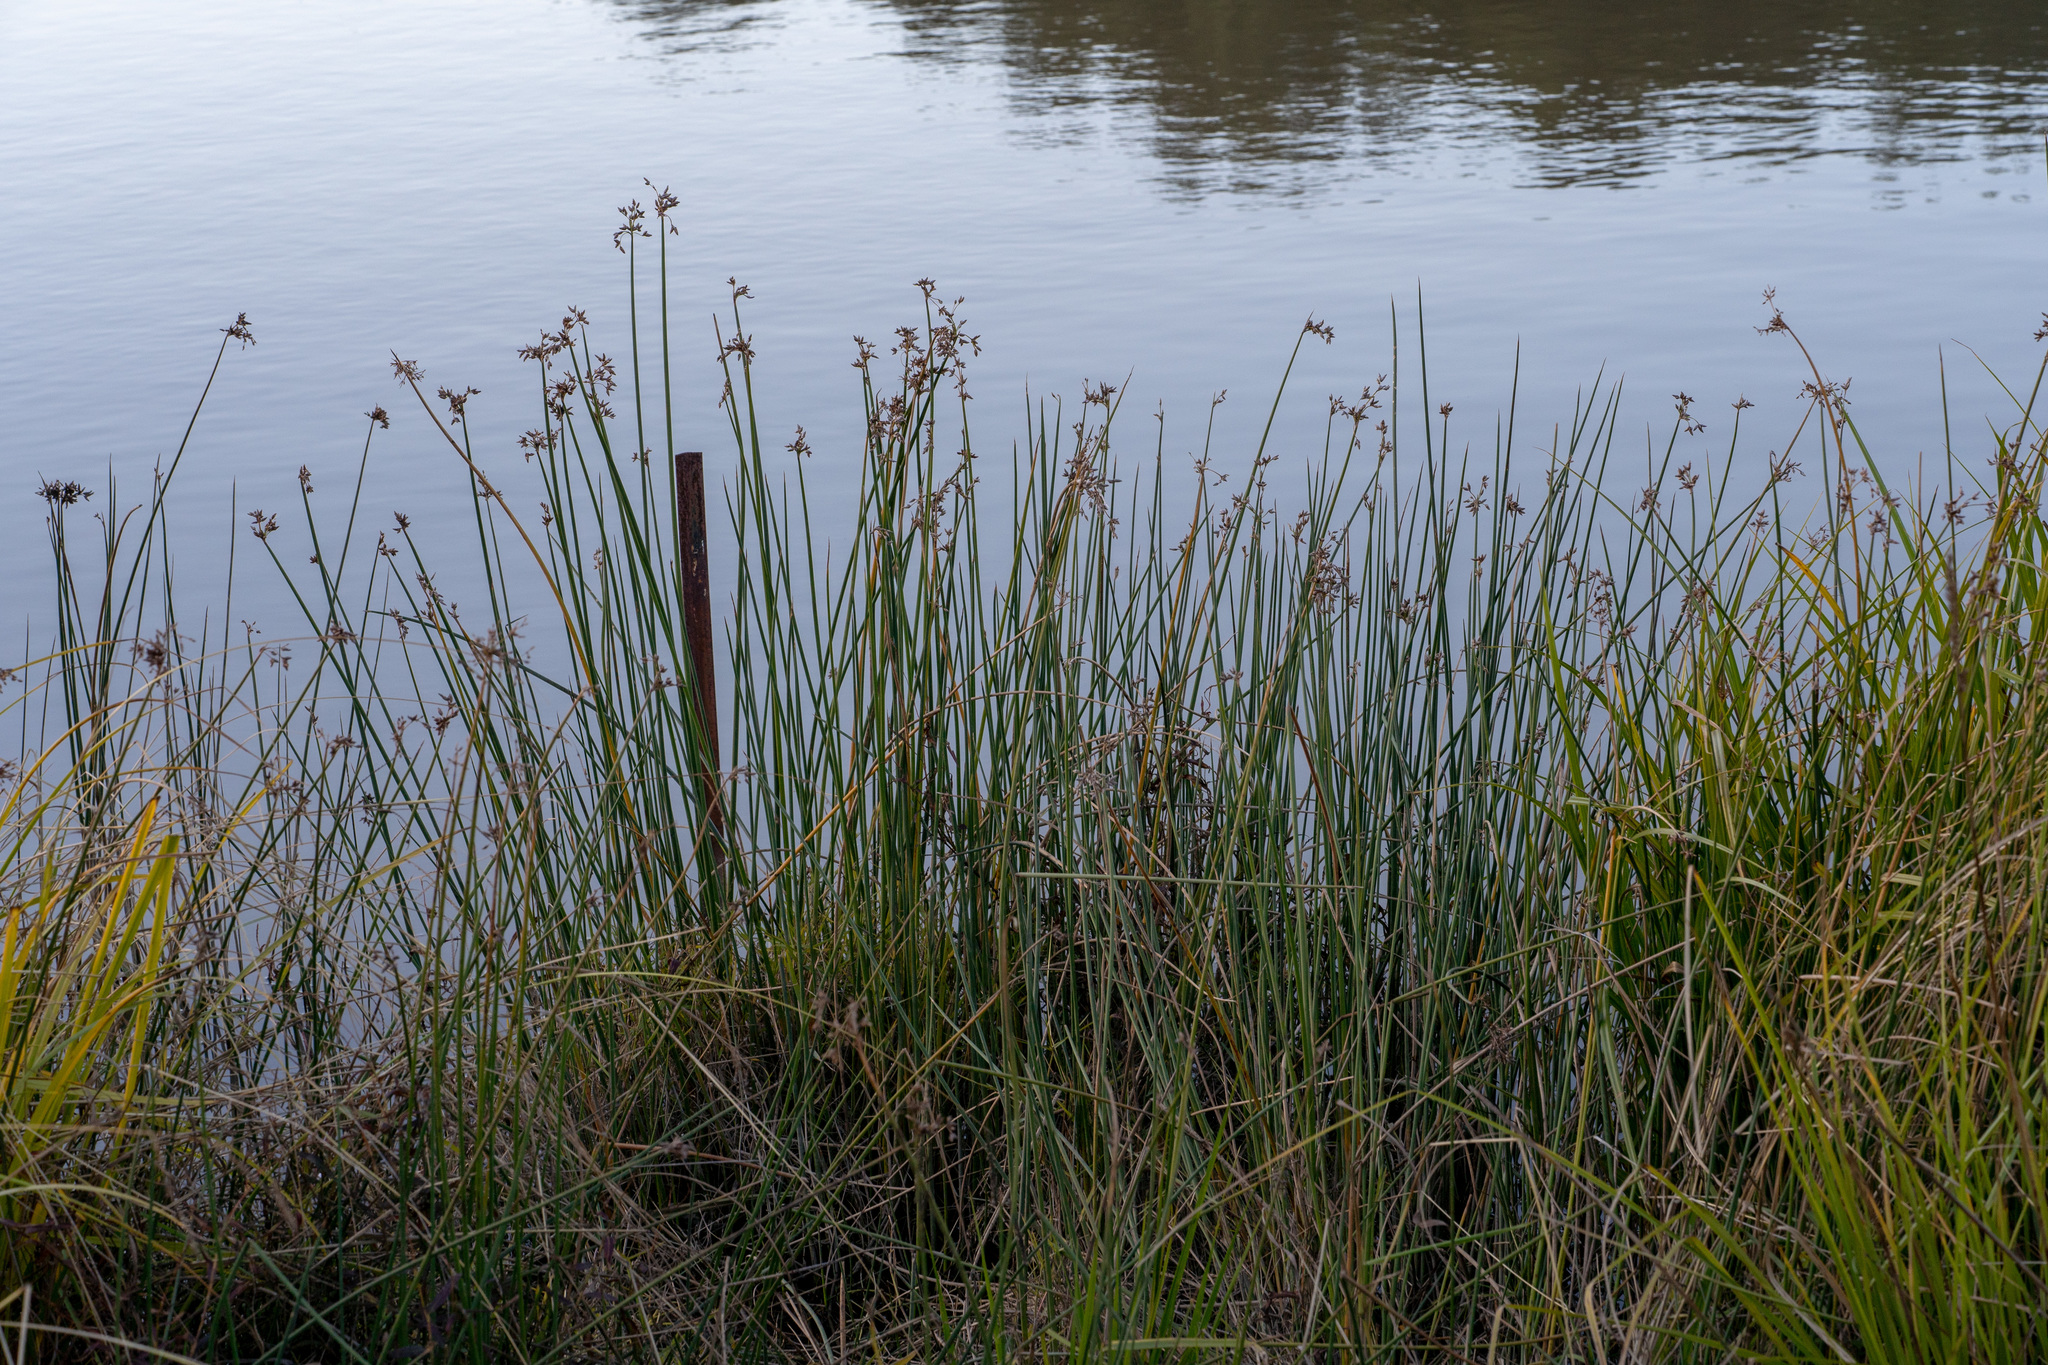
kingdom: Plantae
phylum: Tracheophyta
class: Liliopsida
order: Poales
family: Cyperaceae
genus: Schoenoplectus
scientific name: Schoenoplectus tabernaemontani
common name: Grey club-rush
